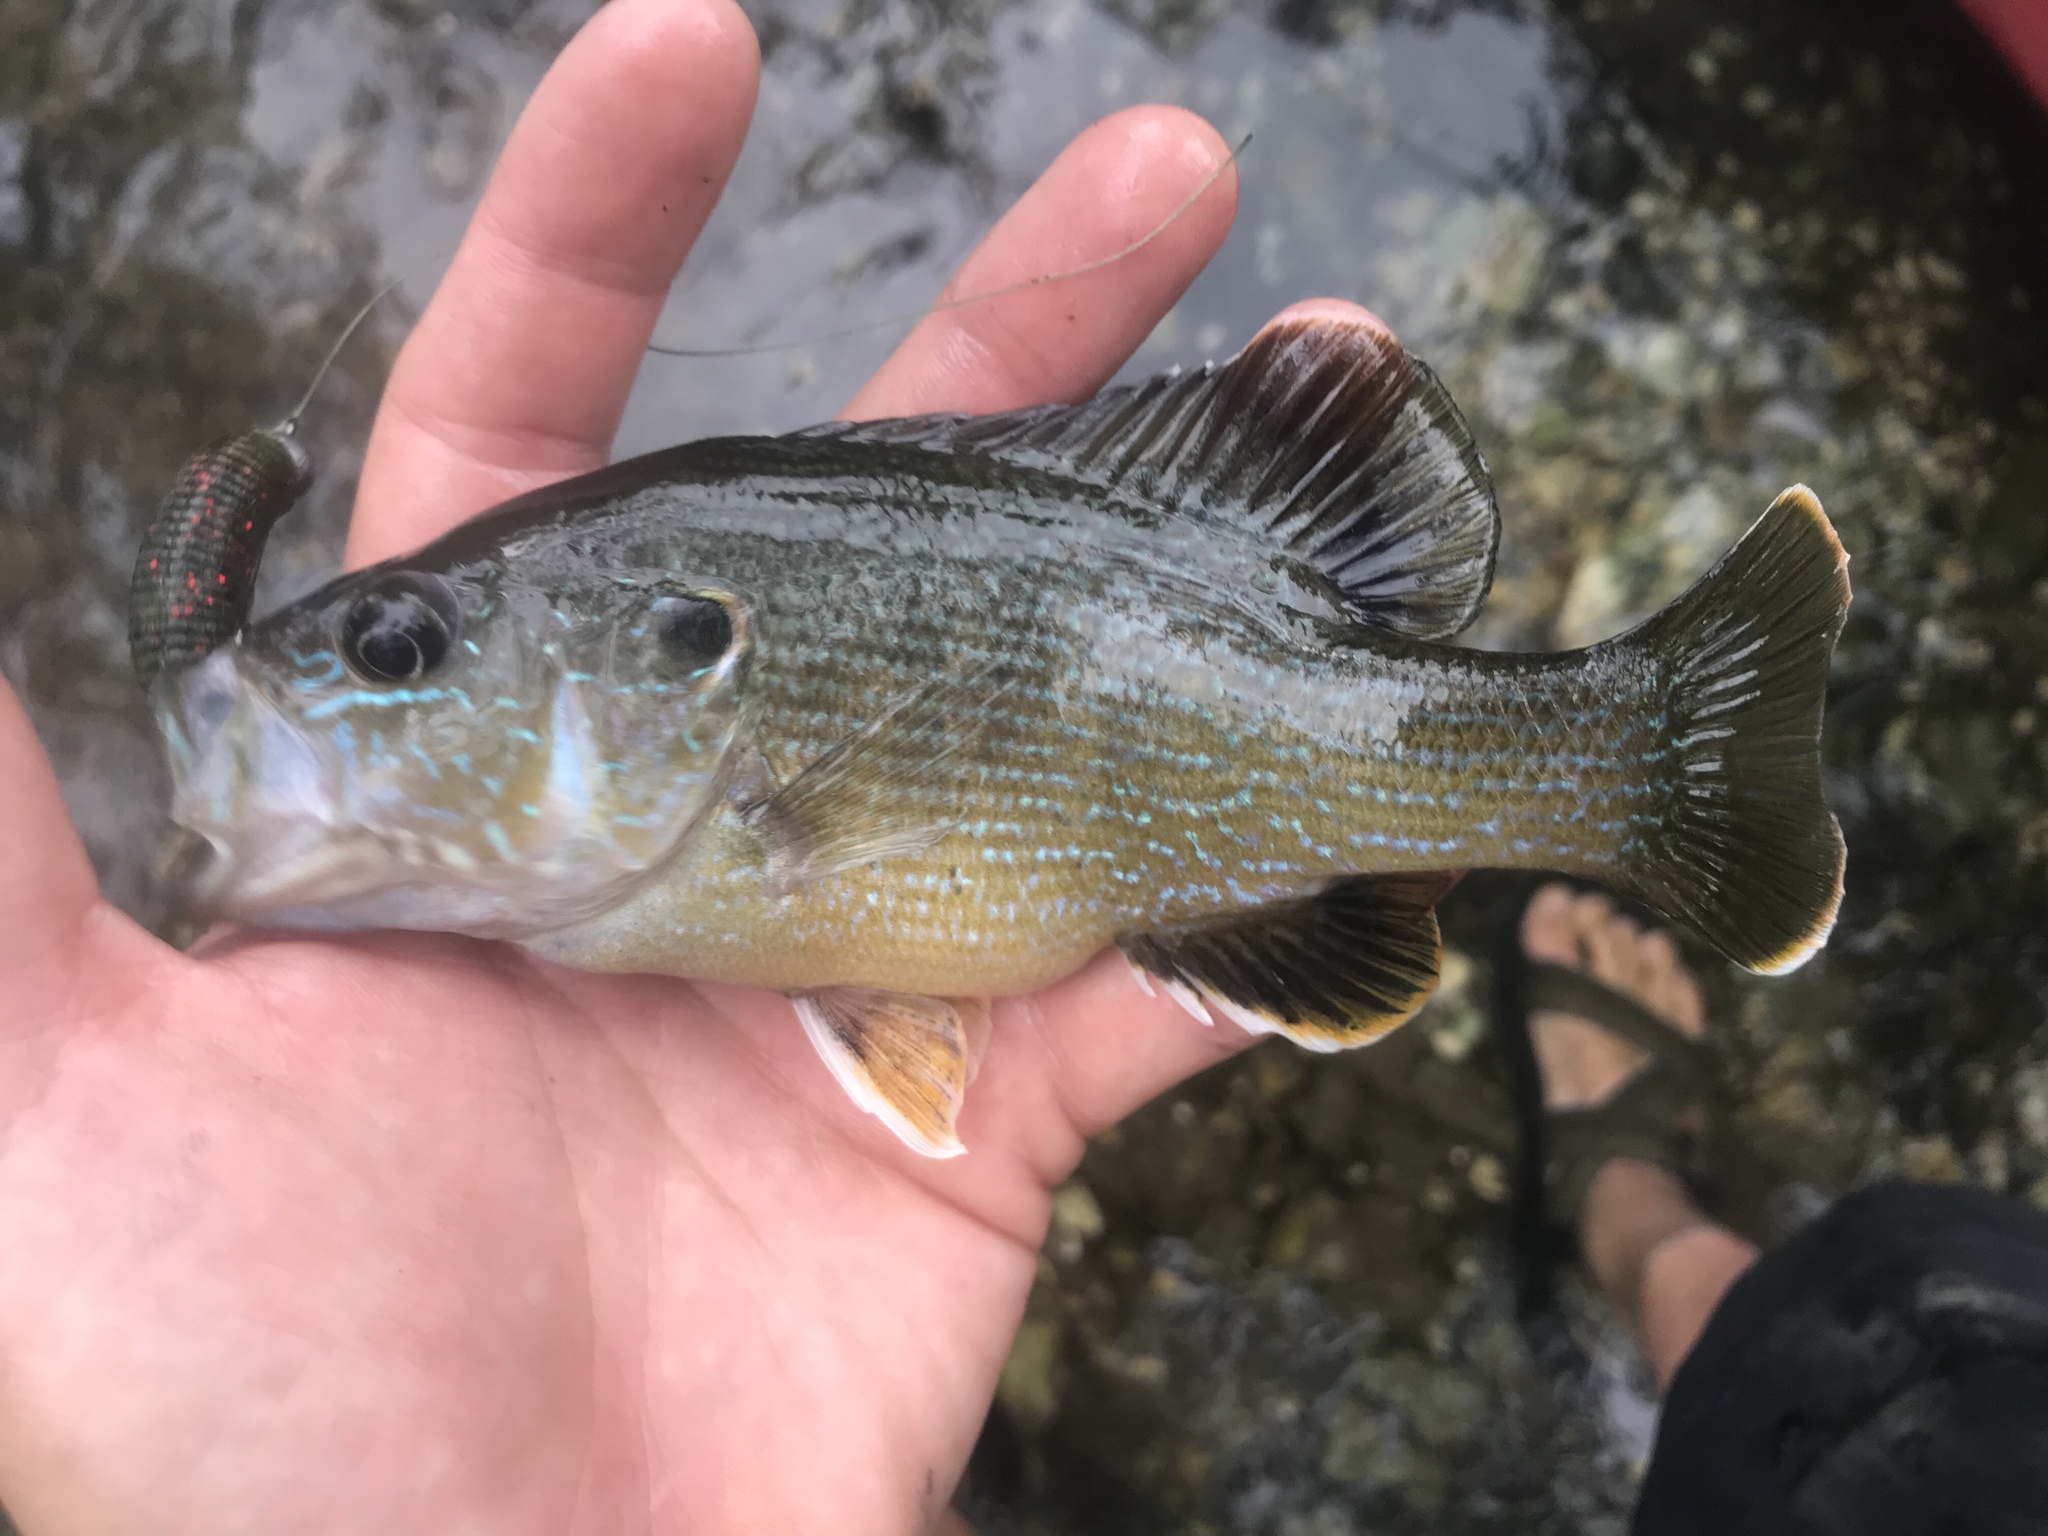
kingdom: Animalia
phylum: Chordata
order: Perciformes
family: Centrarchidae
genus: Lepomis
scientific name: Lepomis cyanellus
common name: Green sunfish
